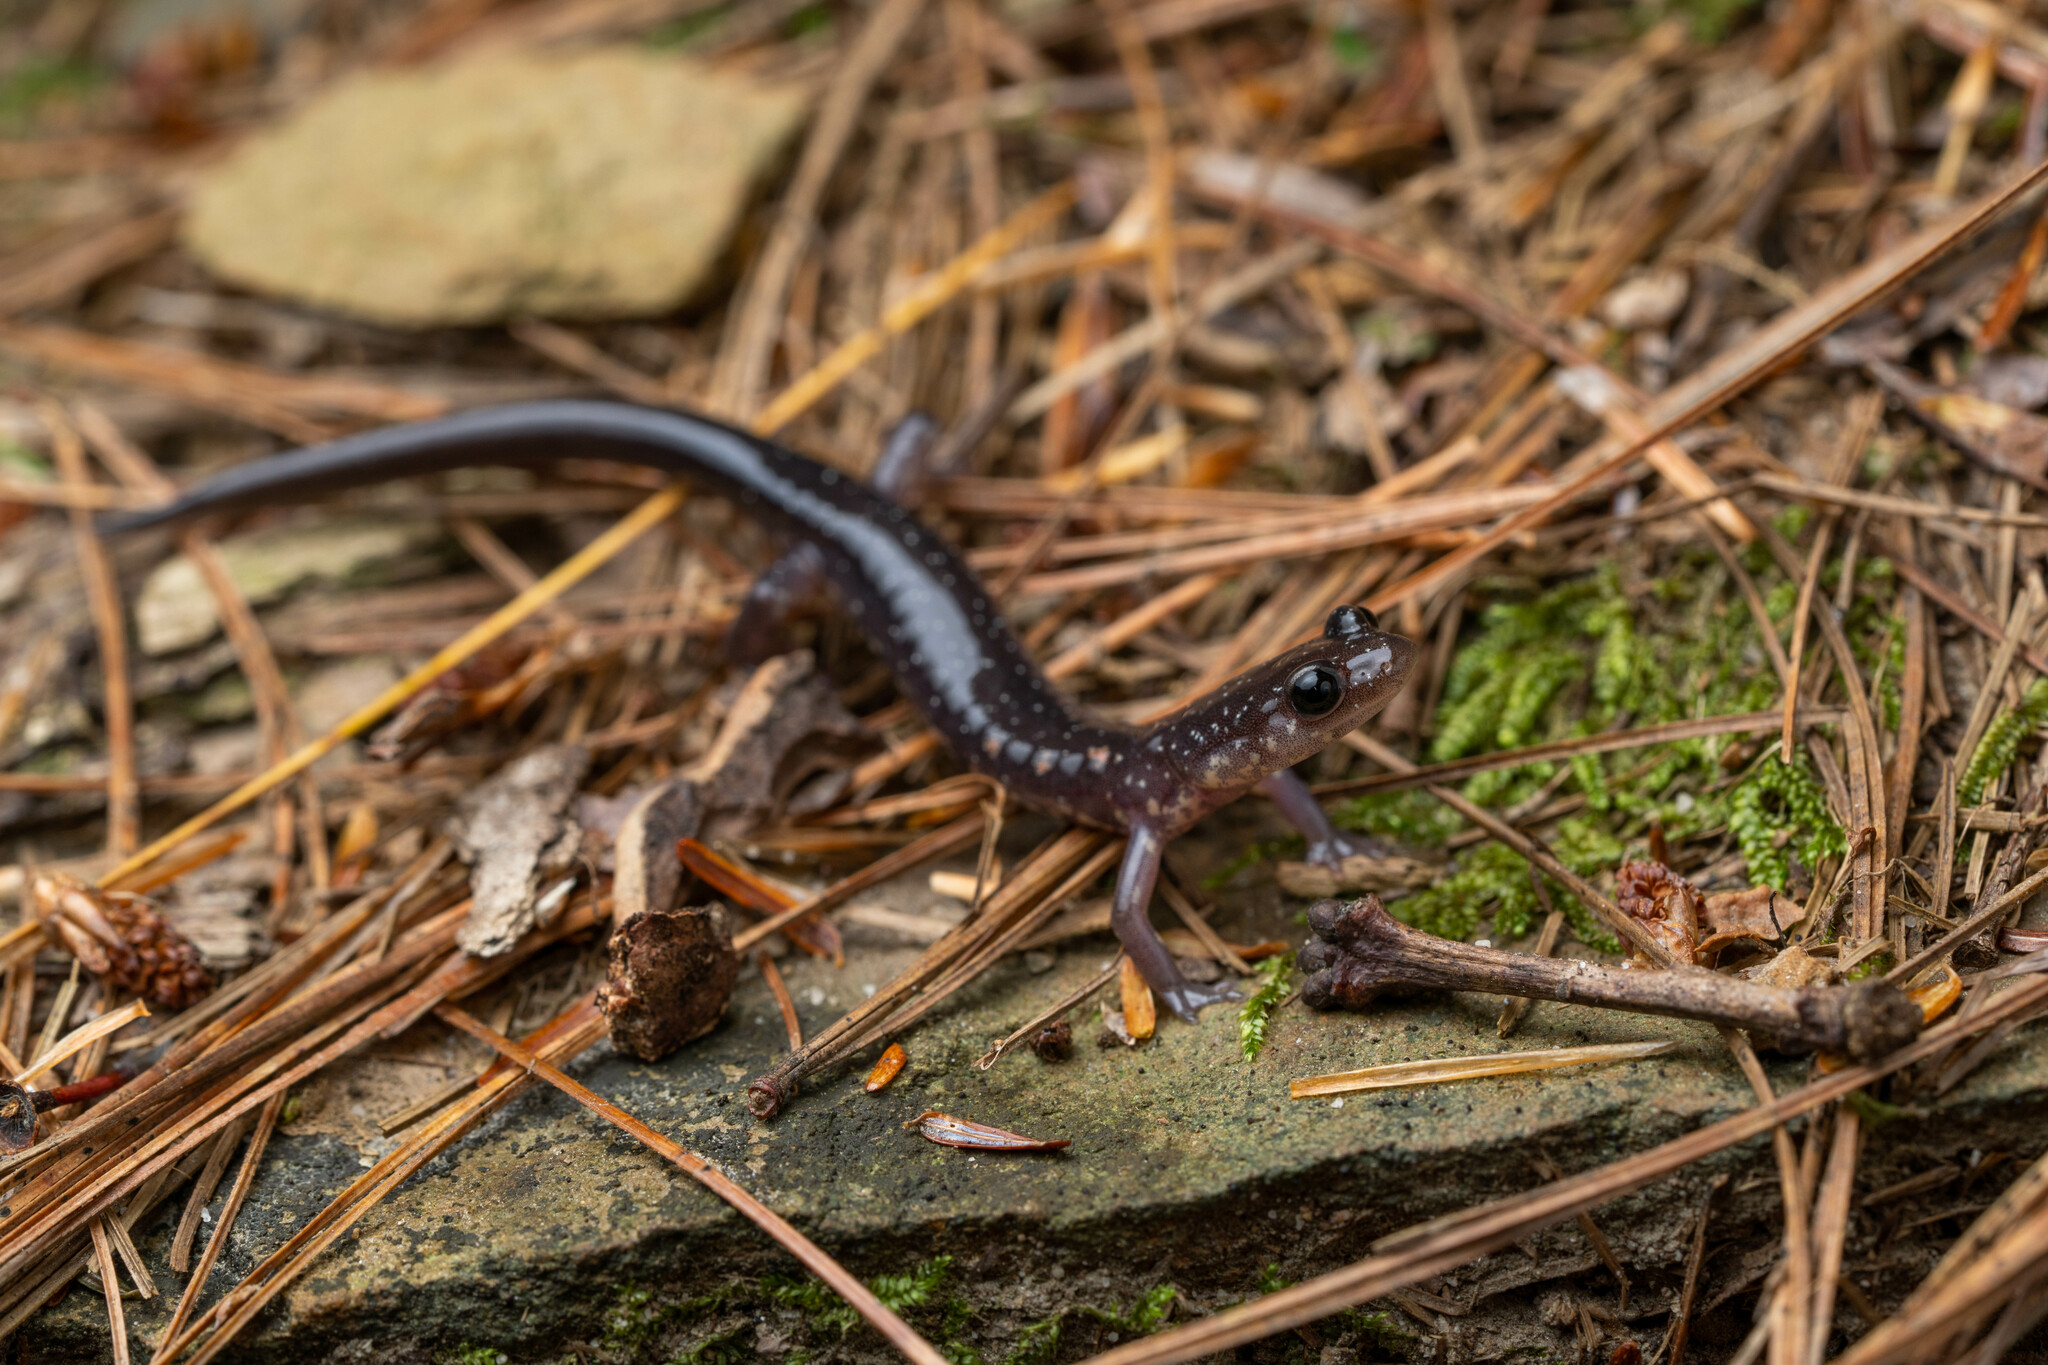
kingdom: Animalia
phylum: Chordata
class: Amphibia
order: Caudata
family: Plethodontidae
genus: Plethodon
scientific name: Plethodon wehrlei
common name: Wehrle's salamander
